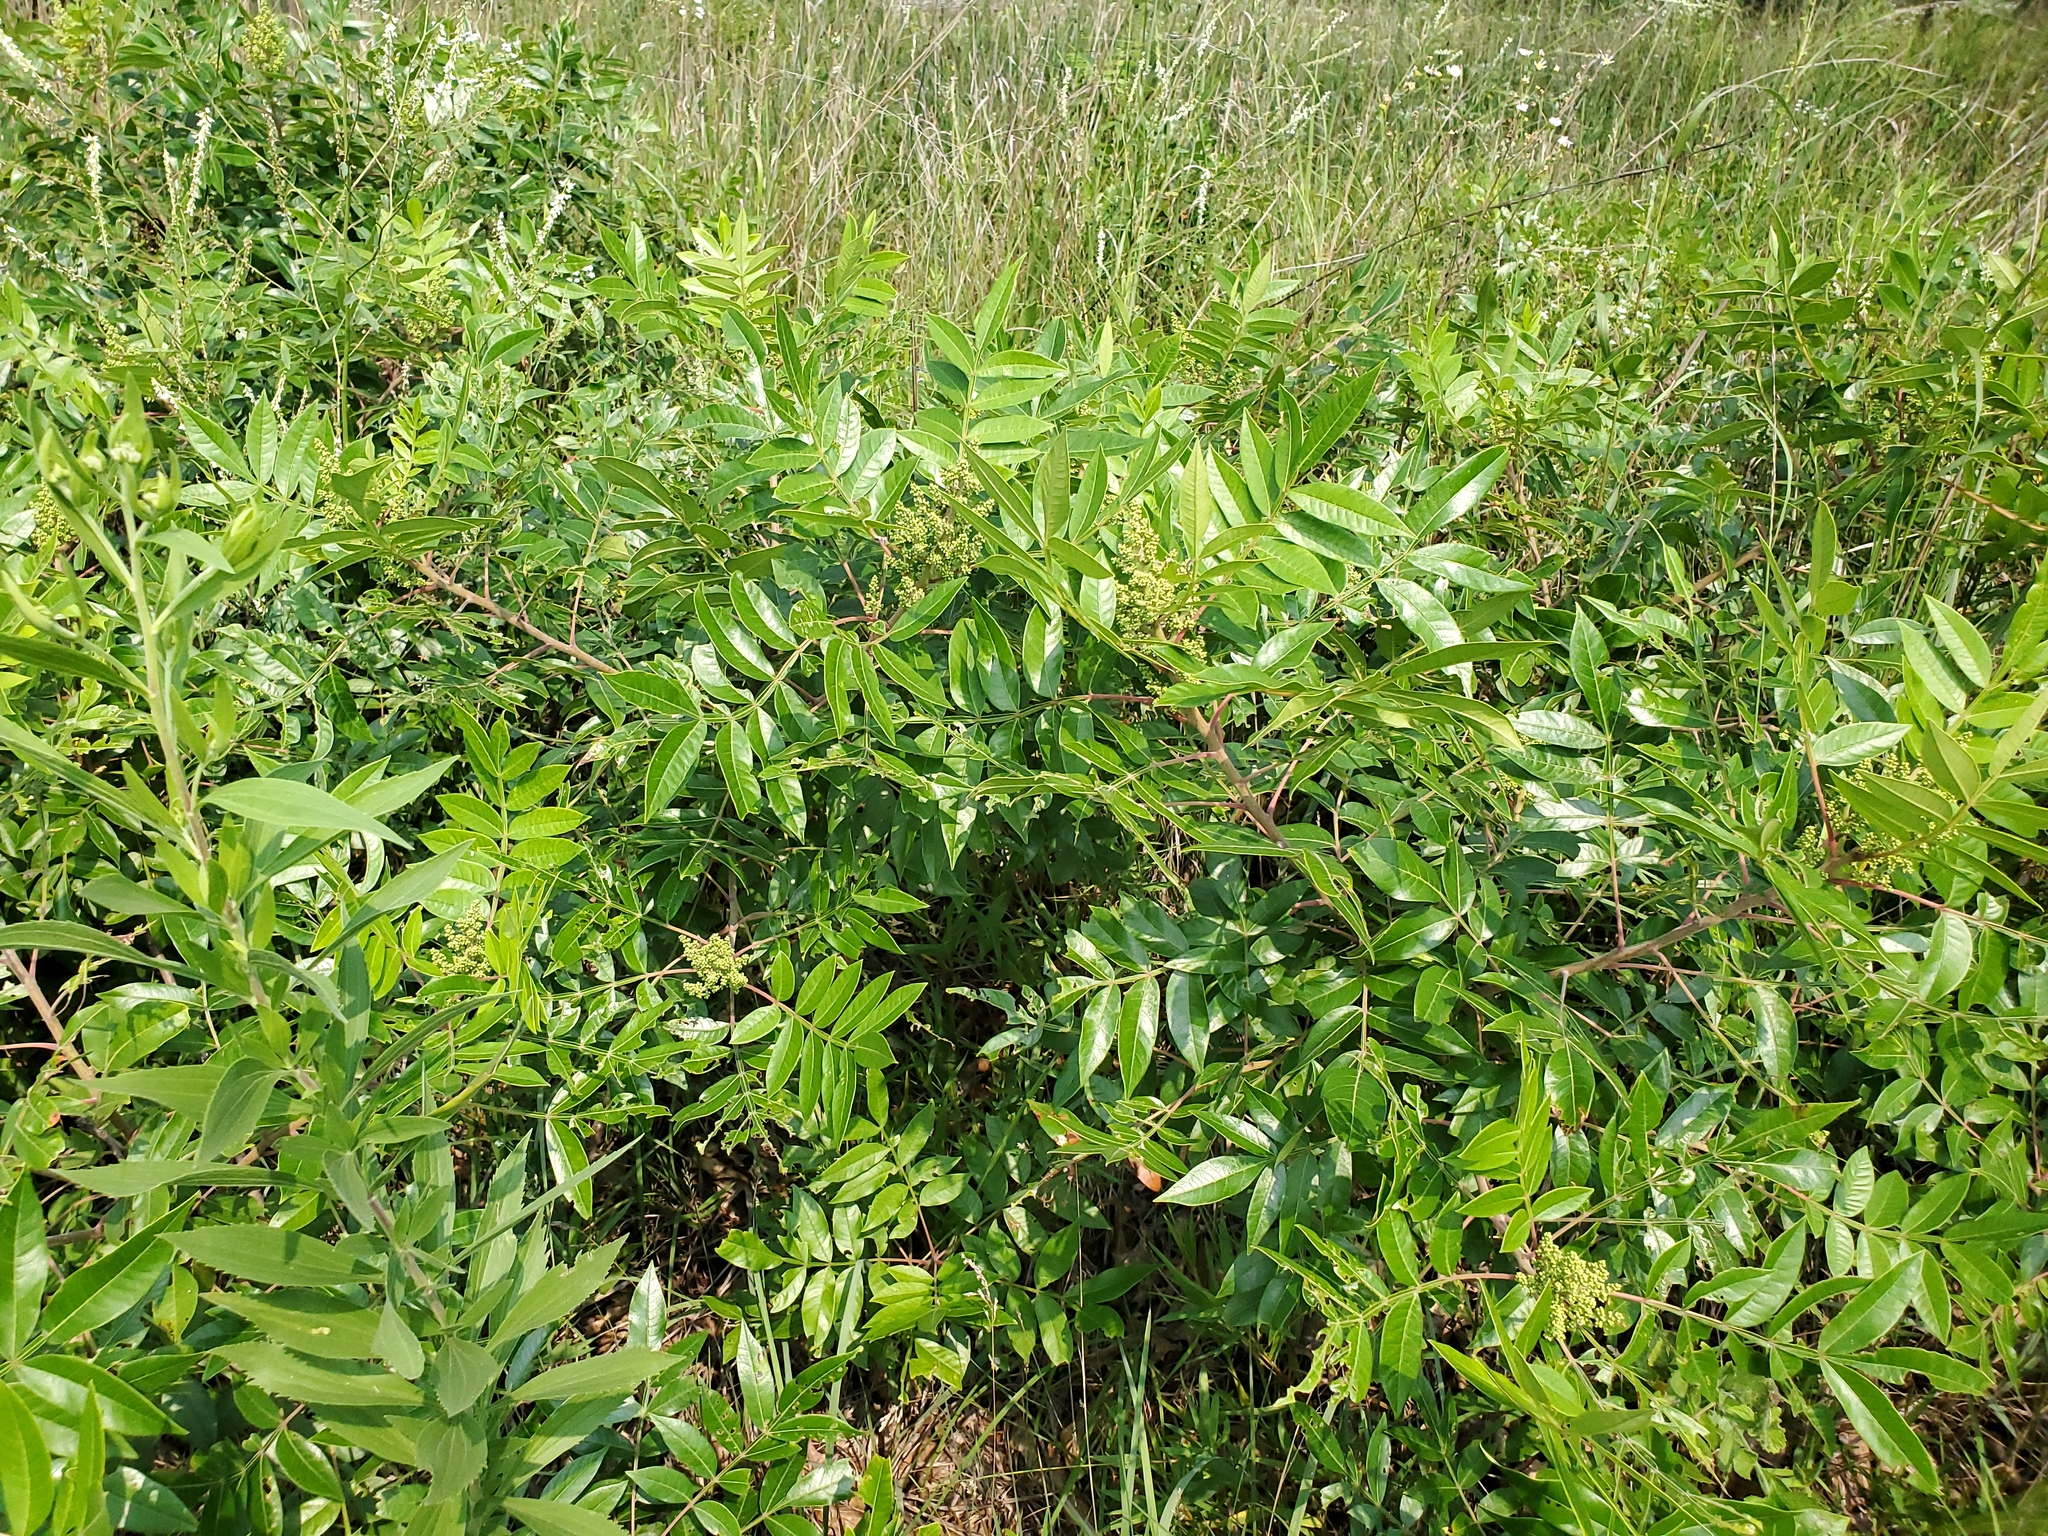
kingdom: Plantae
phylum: Tracheophyta
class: Magnoliopsida
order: Sapindales
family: Anacardiaceae
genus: Rhus
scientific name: Rhus copallina
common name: Shining sumac
